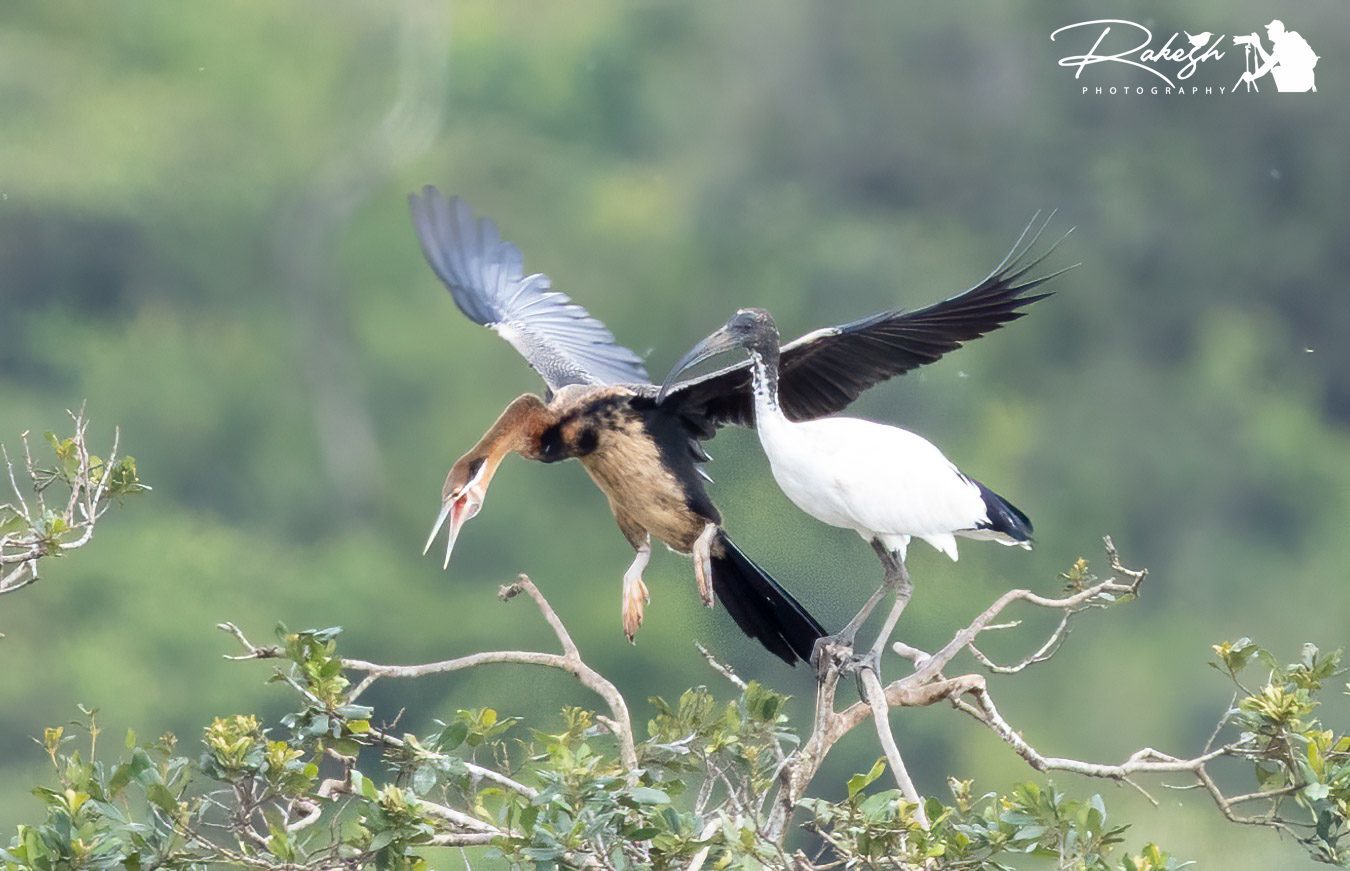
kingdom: Animalia
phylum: Chordata
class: Aves
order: Suliformes
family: Anhingidae
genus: Anhinga
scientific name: Anhinga rufa
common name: African darter
